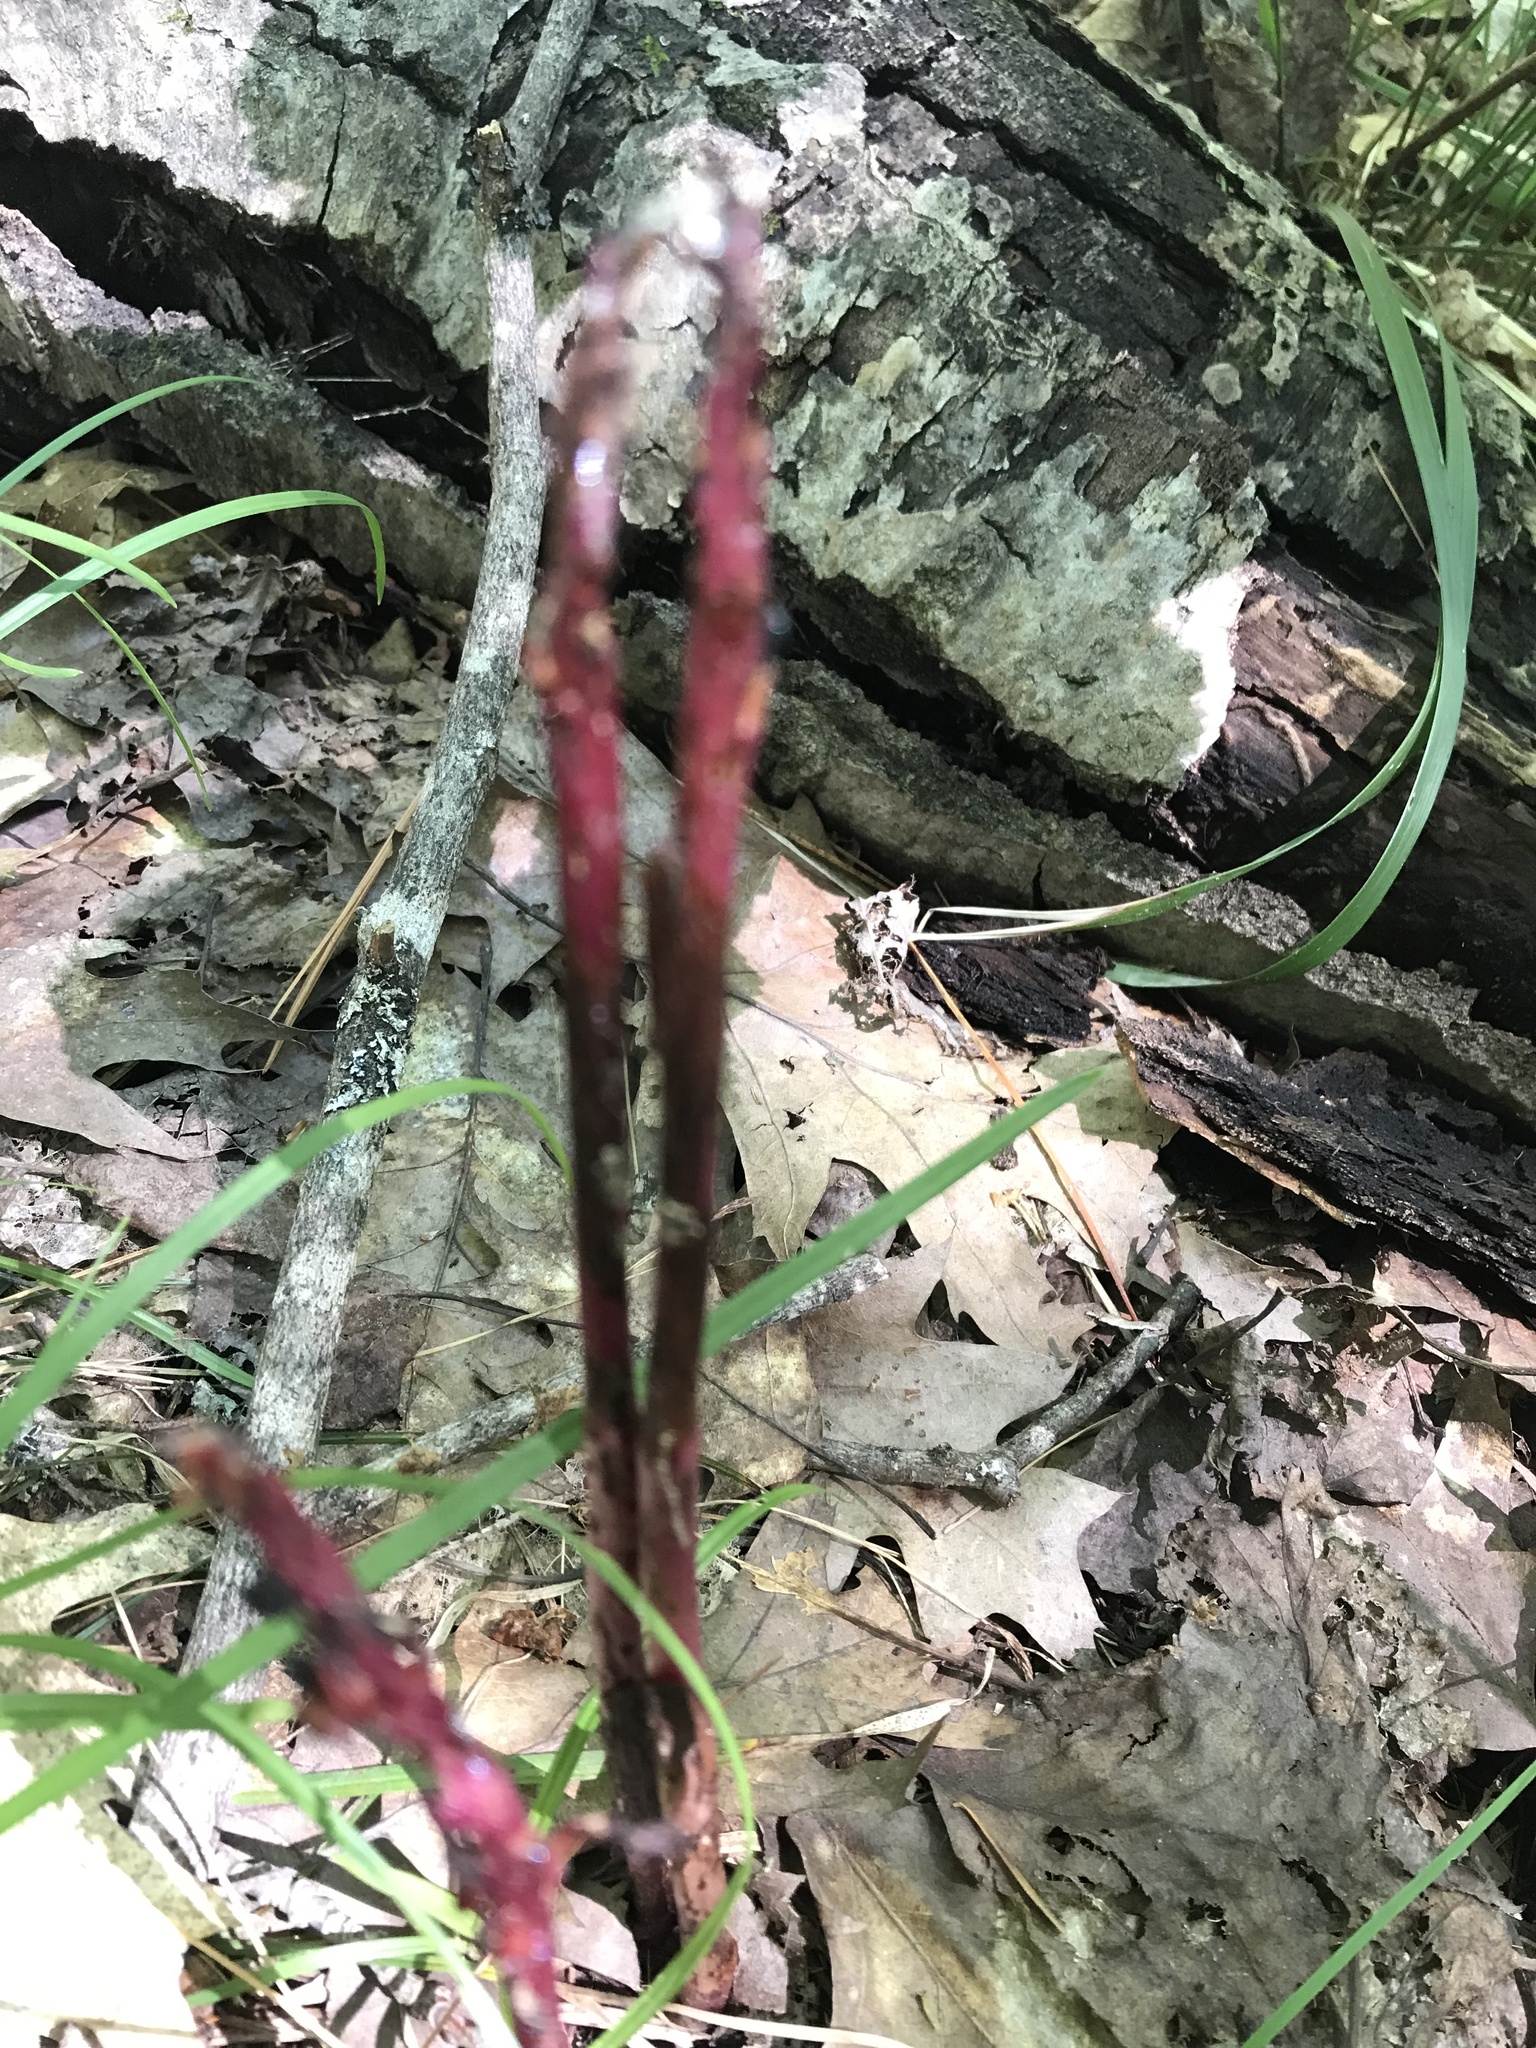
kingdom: Plantae
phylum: Tracheophyta
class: Liliopsida
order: Asparagales
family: Orchidaceae
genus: Corallorhiza
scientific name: Corallorhiza maculata
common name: Spotted coralroot
